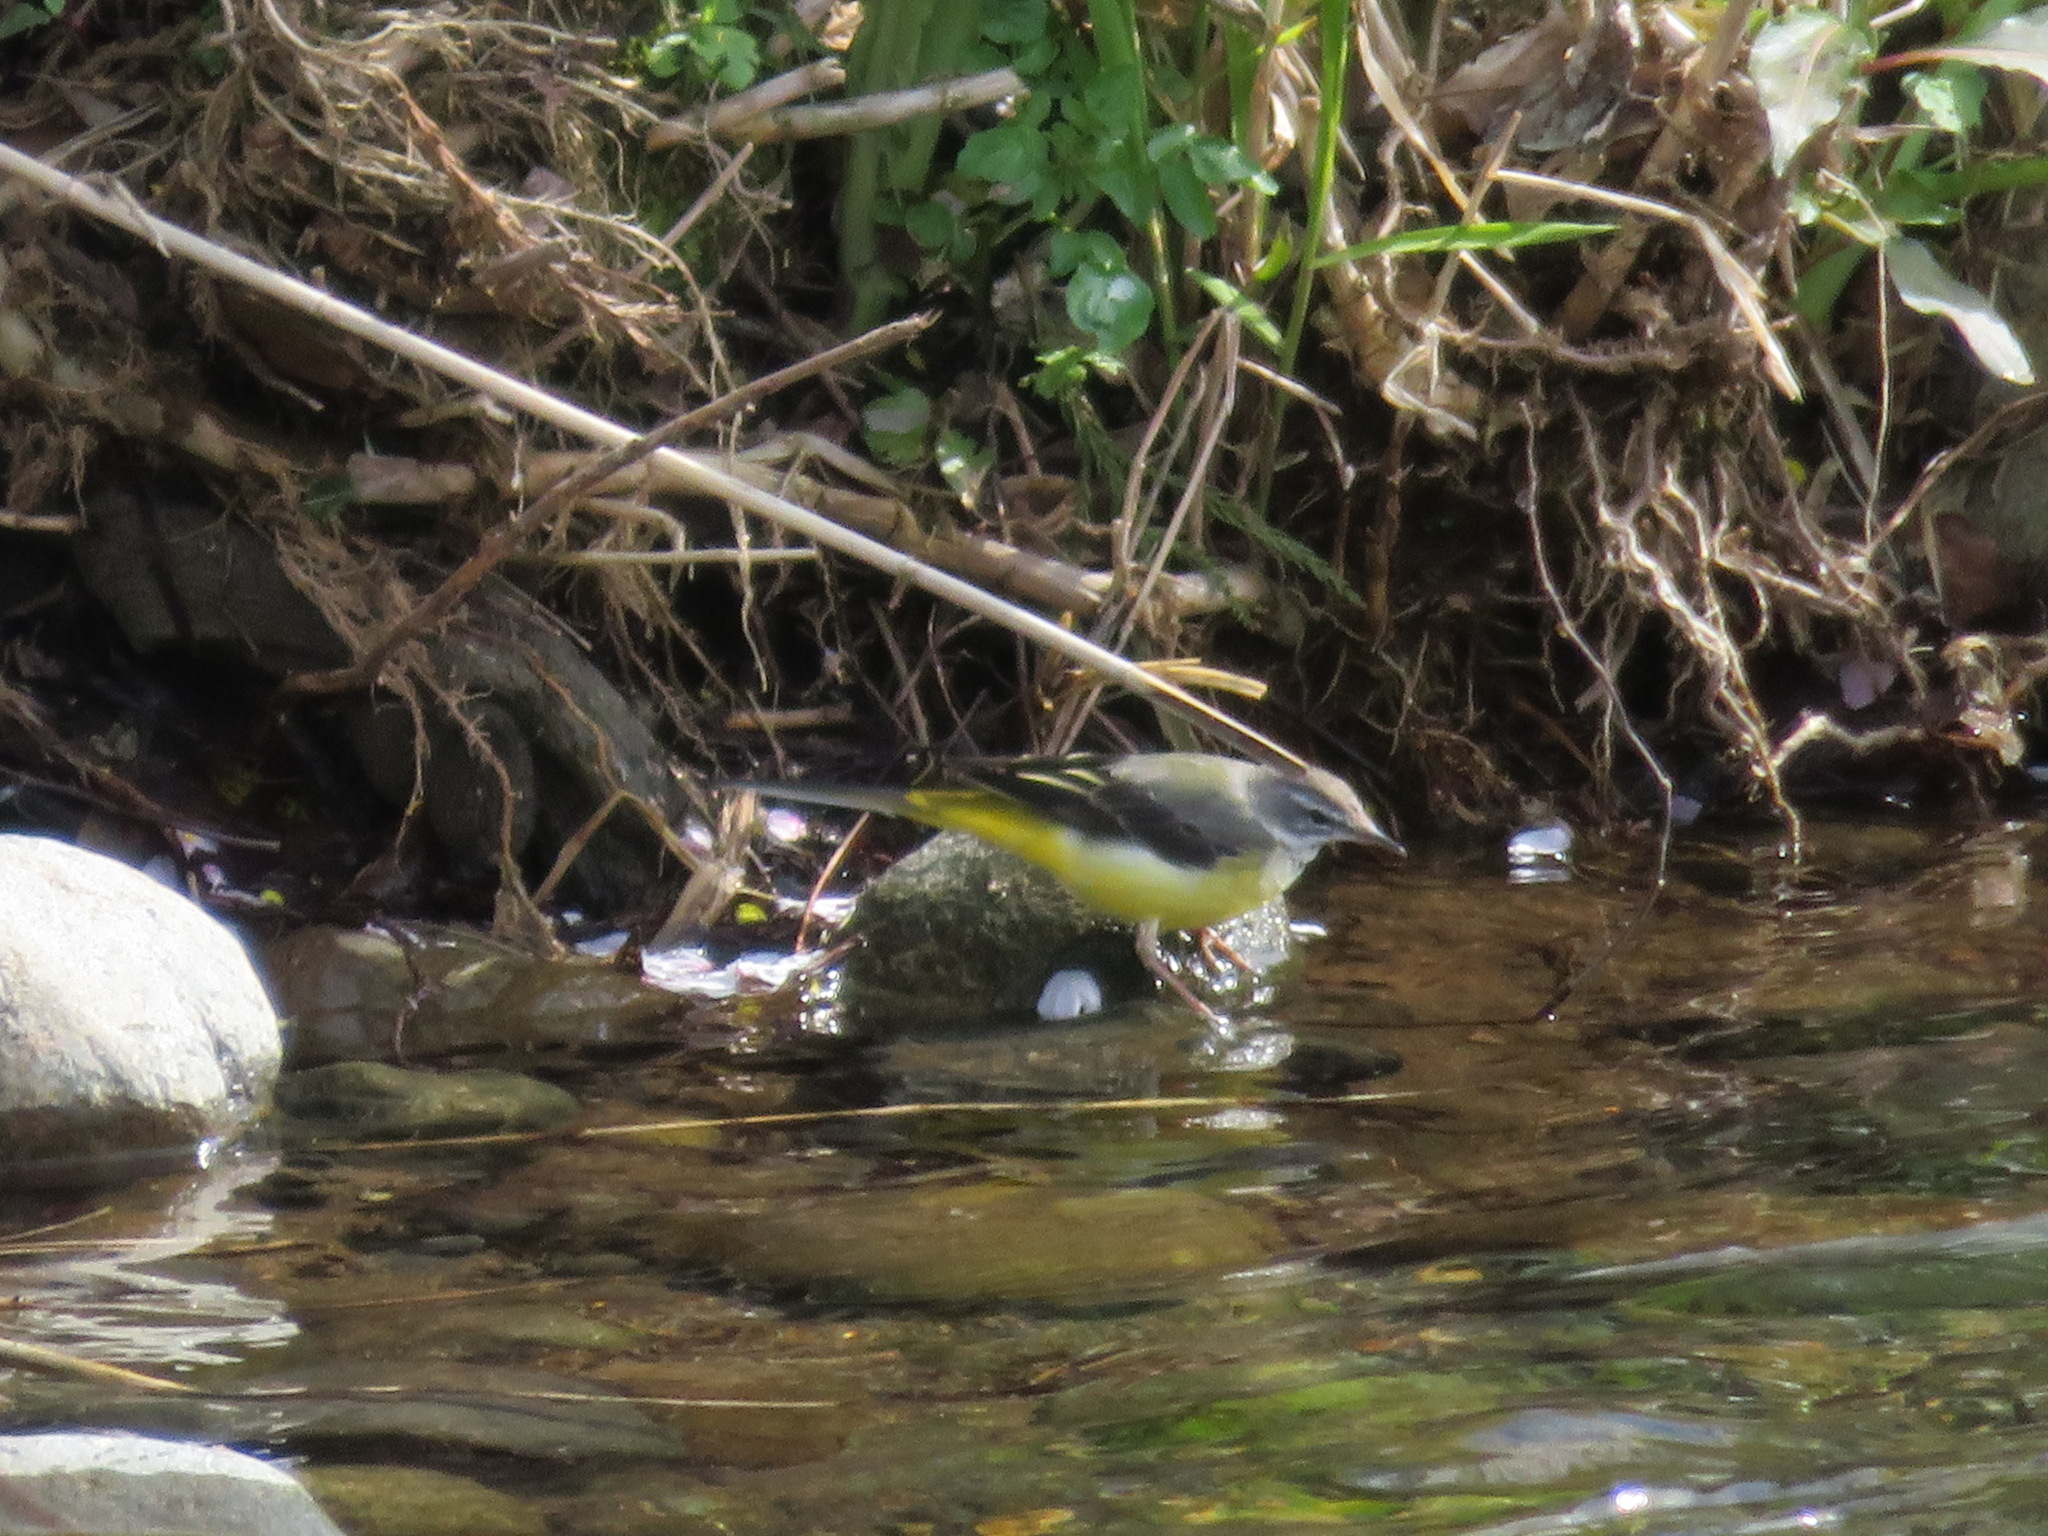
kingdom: Animalia
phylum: Chordata
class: Aves
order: Passeriformes
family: Motacillidae
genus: Motacilla
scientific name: Motacilla cinerea
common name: Grey wagtail
